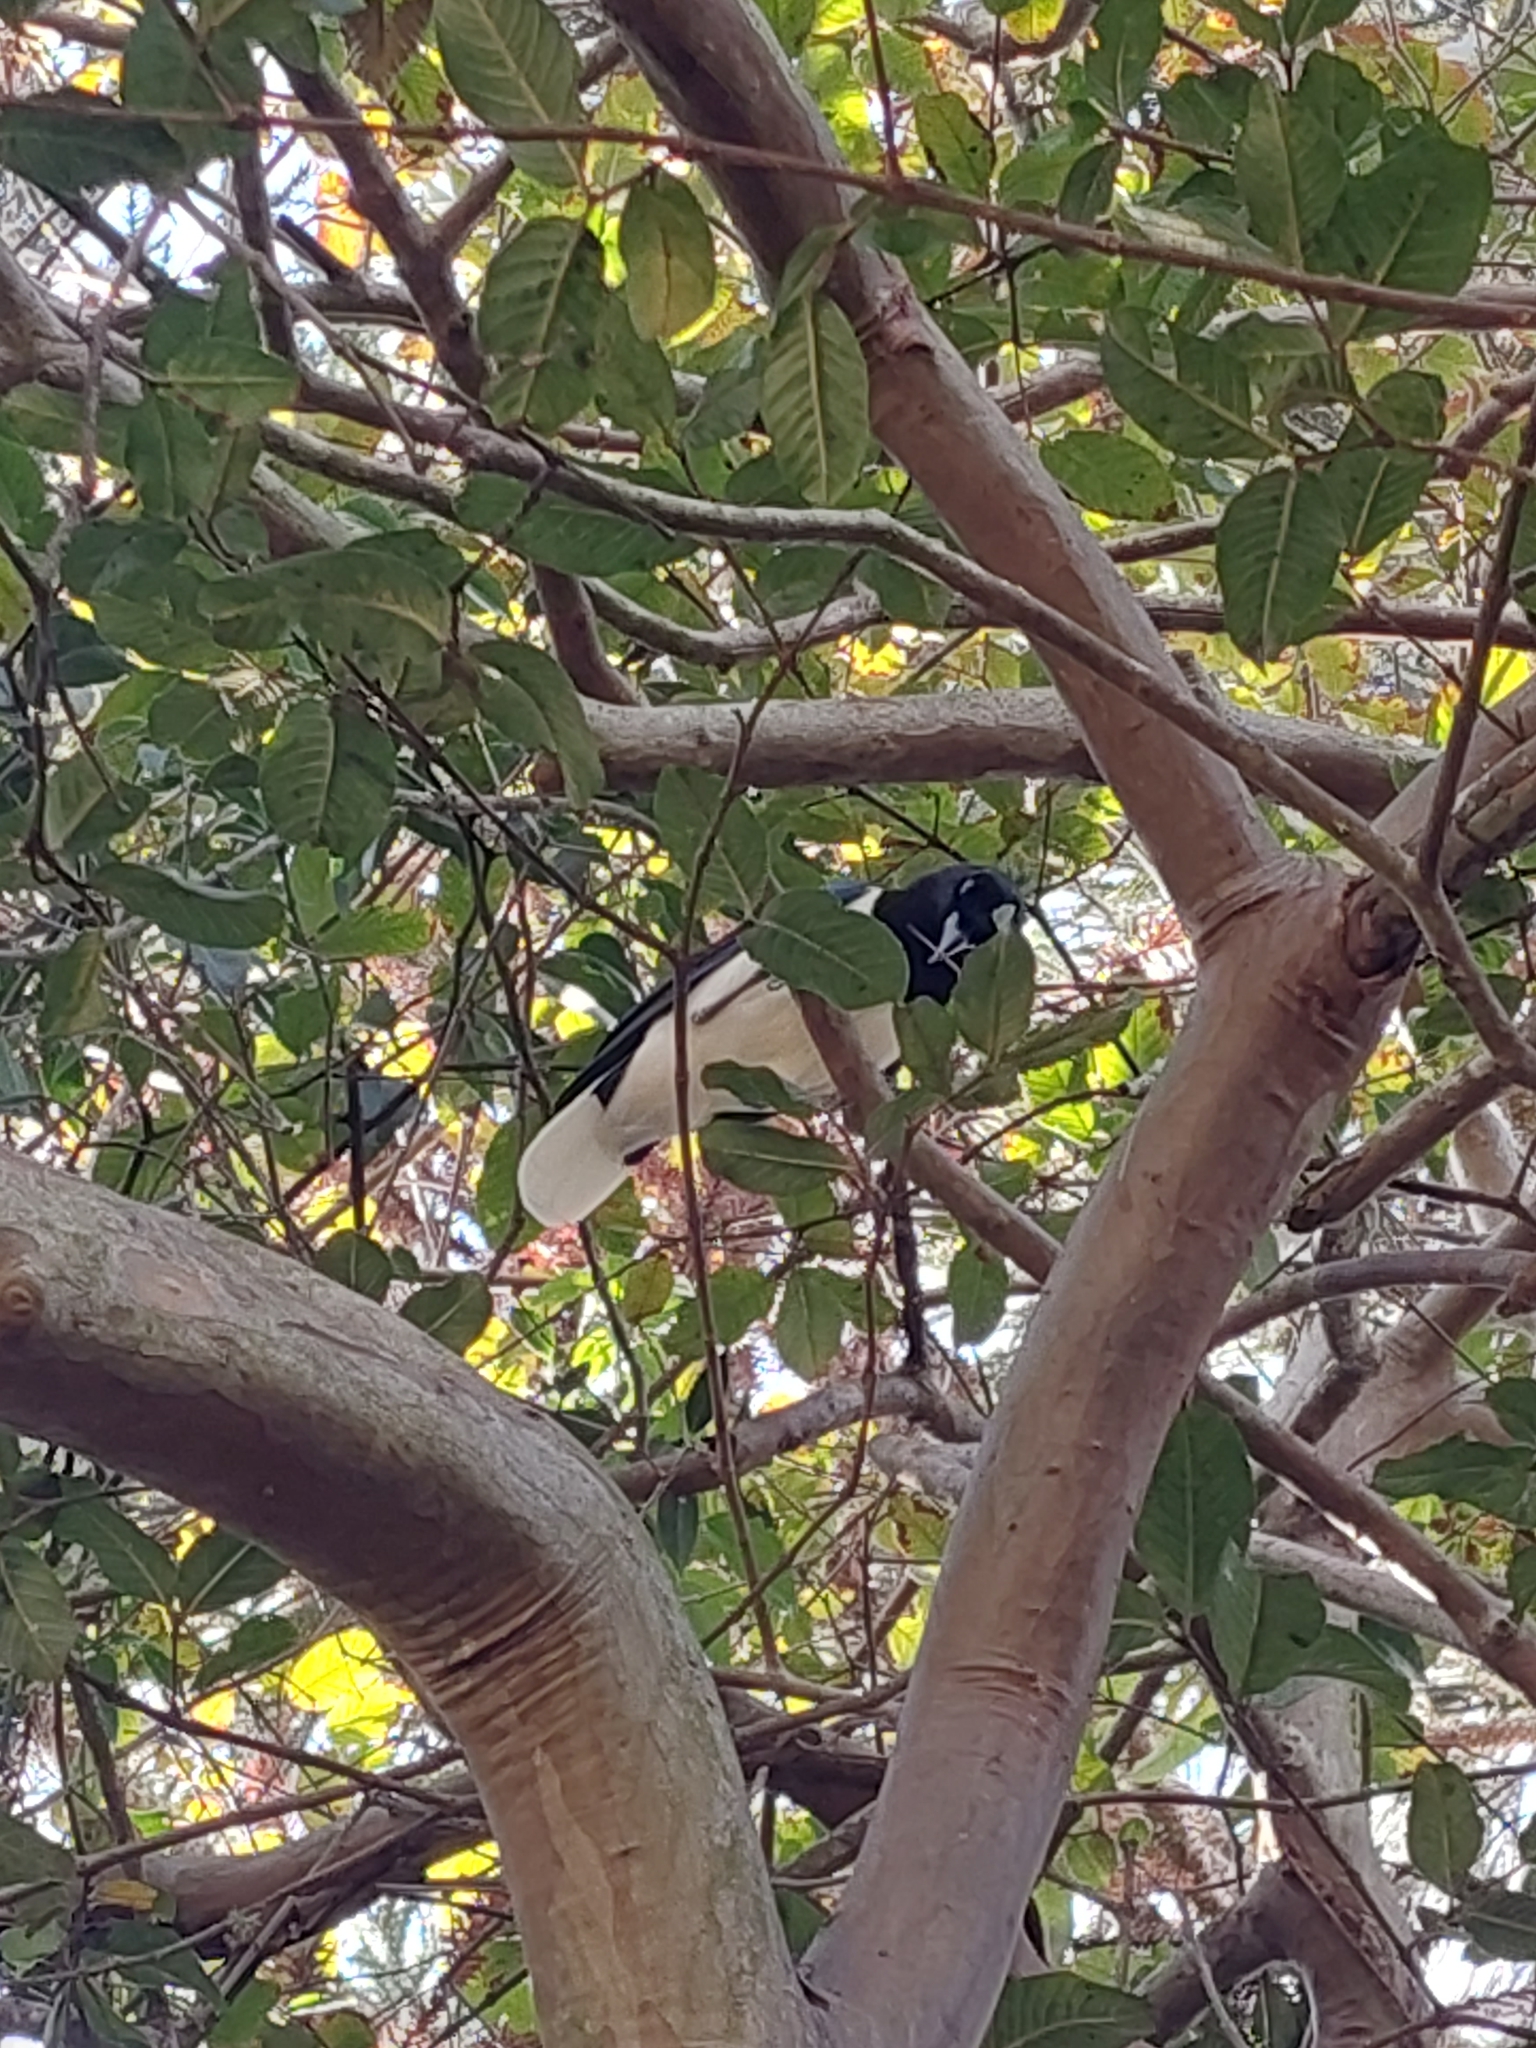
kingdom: Animalia
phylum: Chordata
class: Aves
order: Passeriformes
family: Corvidae
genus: Cyanocorax
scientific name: Cyanocorax cristatellus
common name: Curl-crested jay
